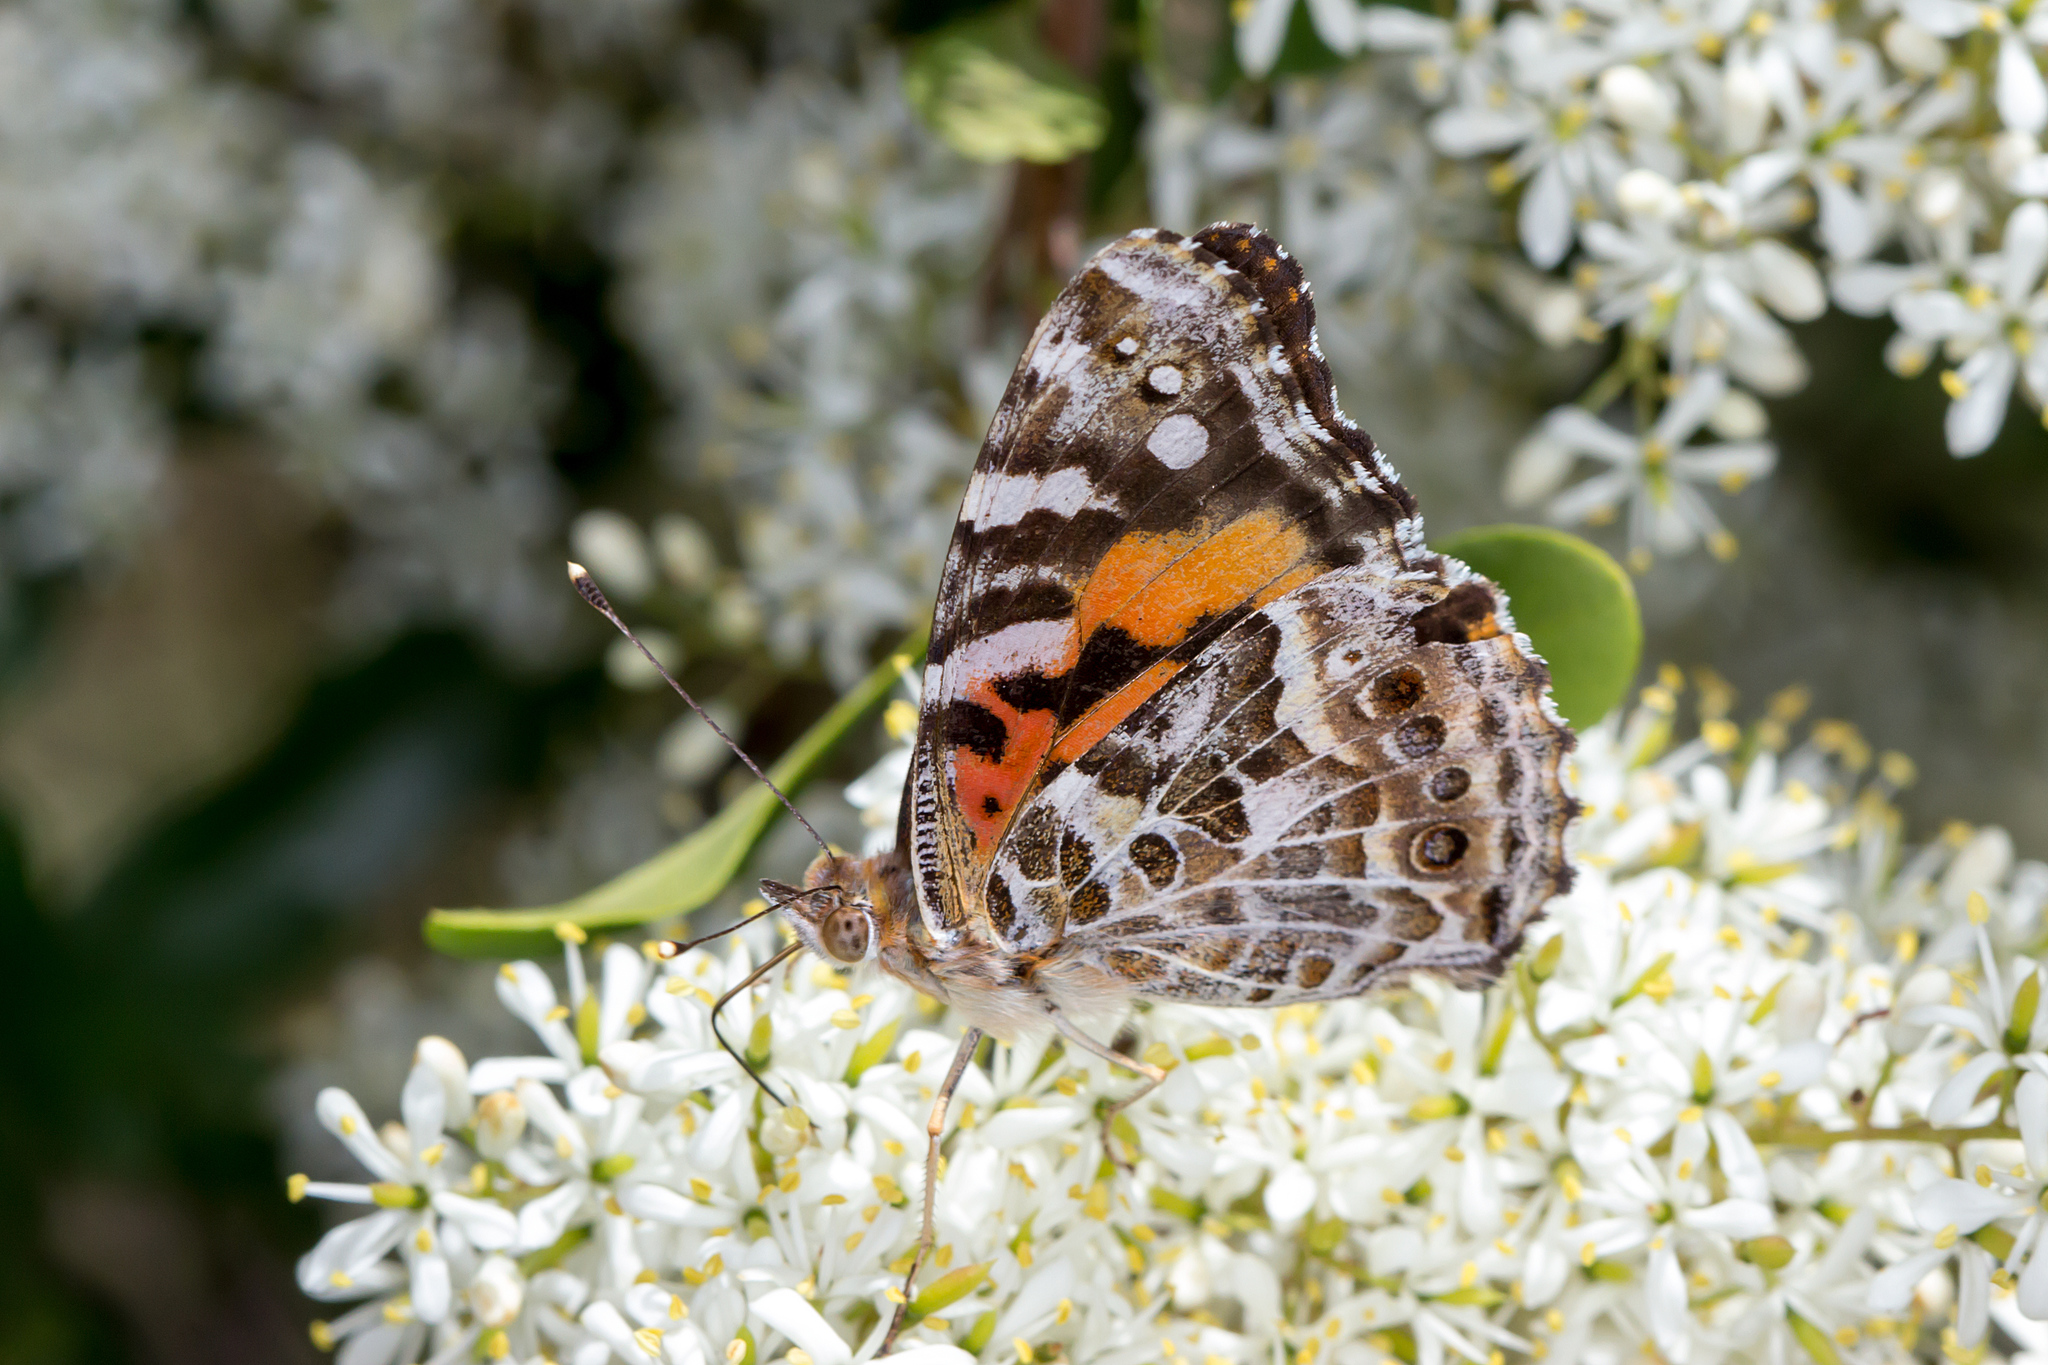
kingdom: Animalia
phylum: Arthropoda
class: Insecta
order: Lepidoptera
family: Nymphalidae
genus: Vanessa
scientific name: Vanessa kershawi
